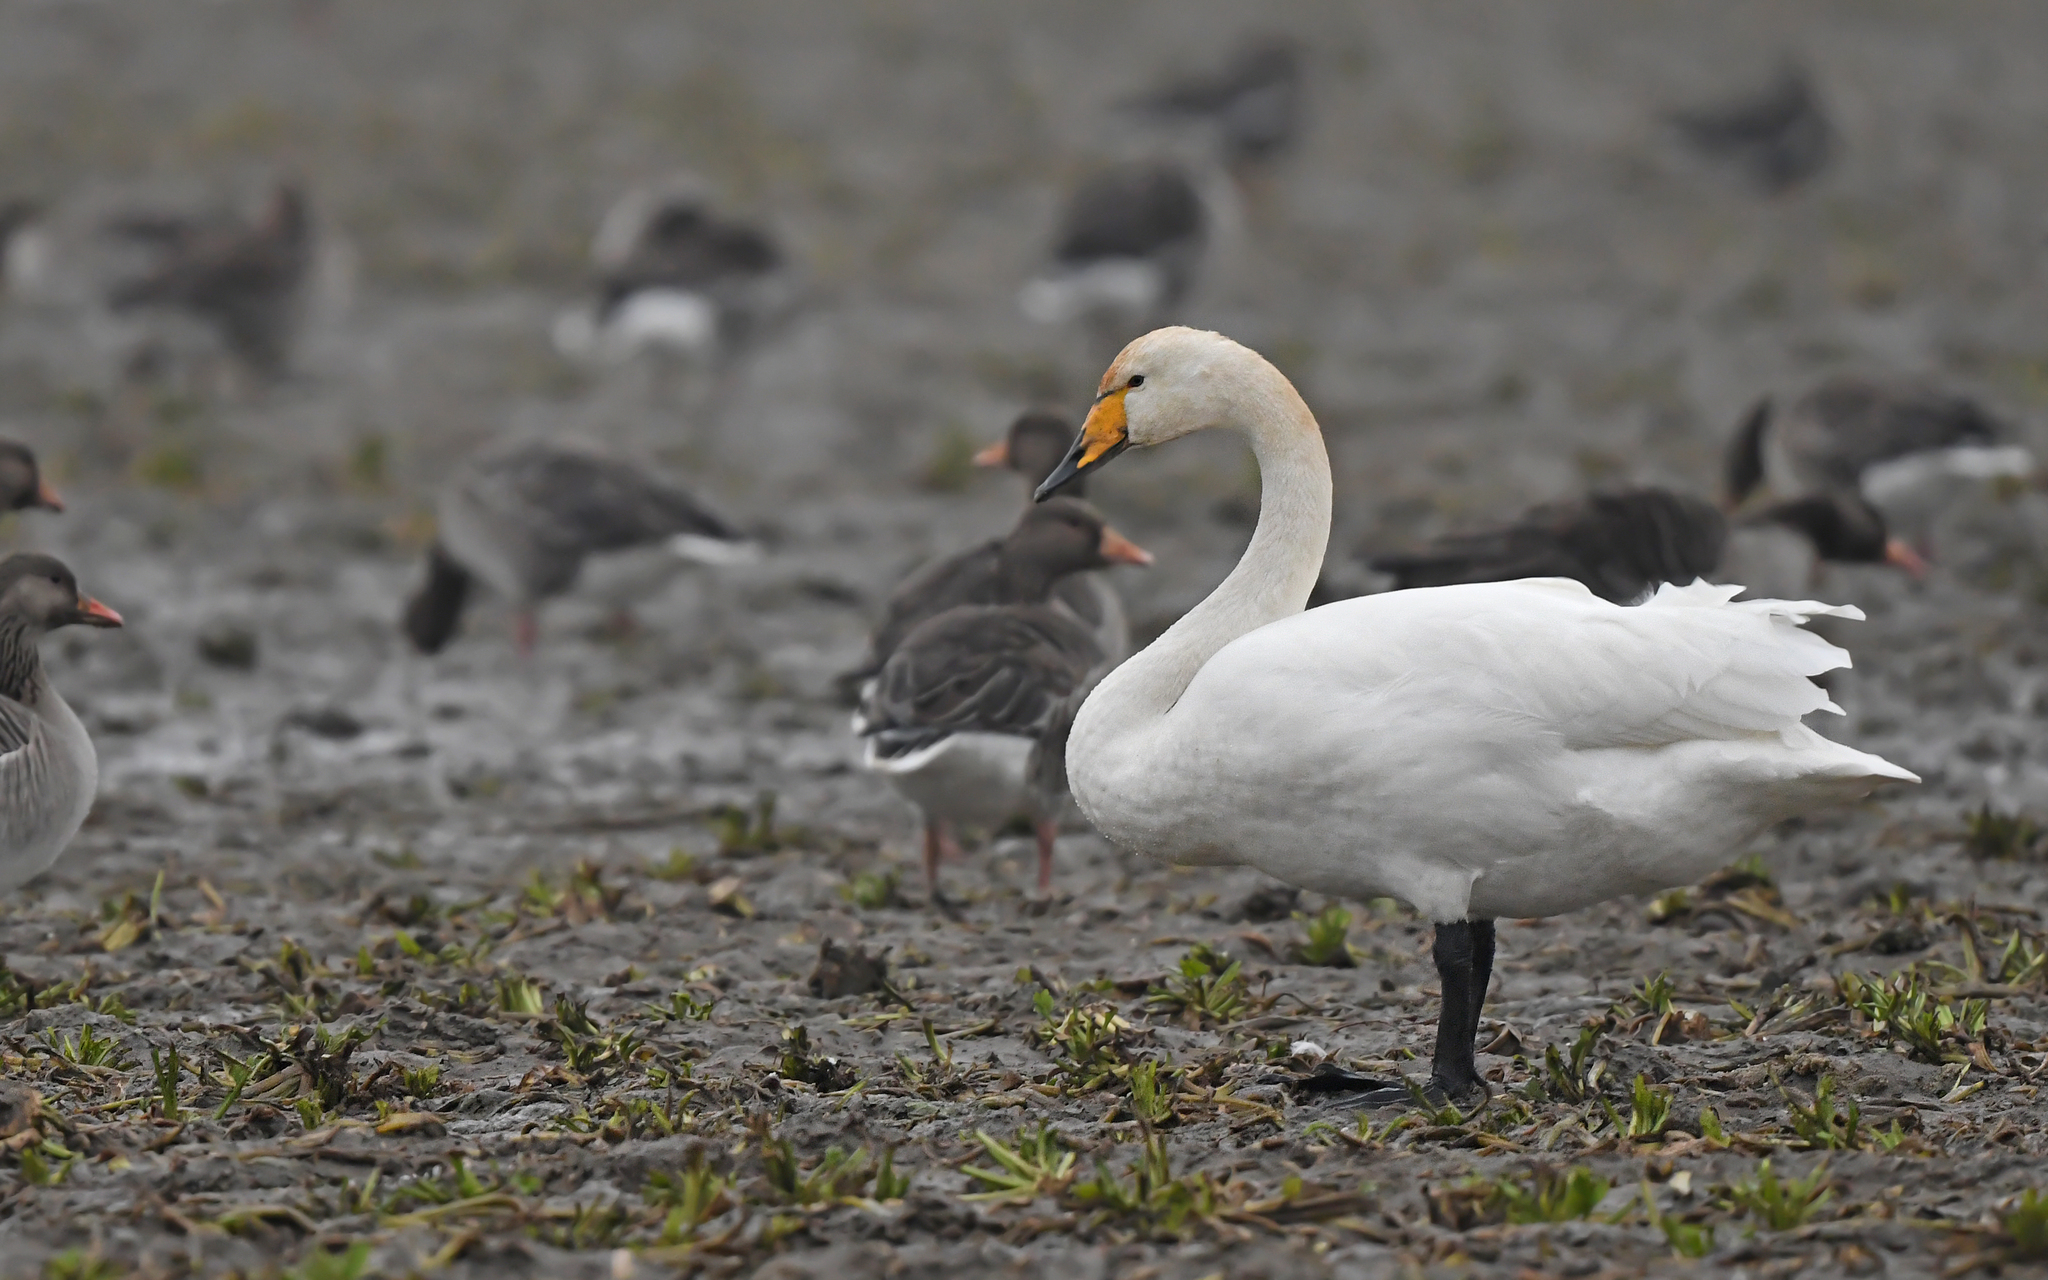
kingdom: Animalia
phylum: Chordata
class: Aves
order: Anseriformes
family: Anatidae
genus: Cygnus
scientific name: Cygnus cygnus
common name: Whooper swan
